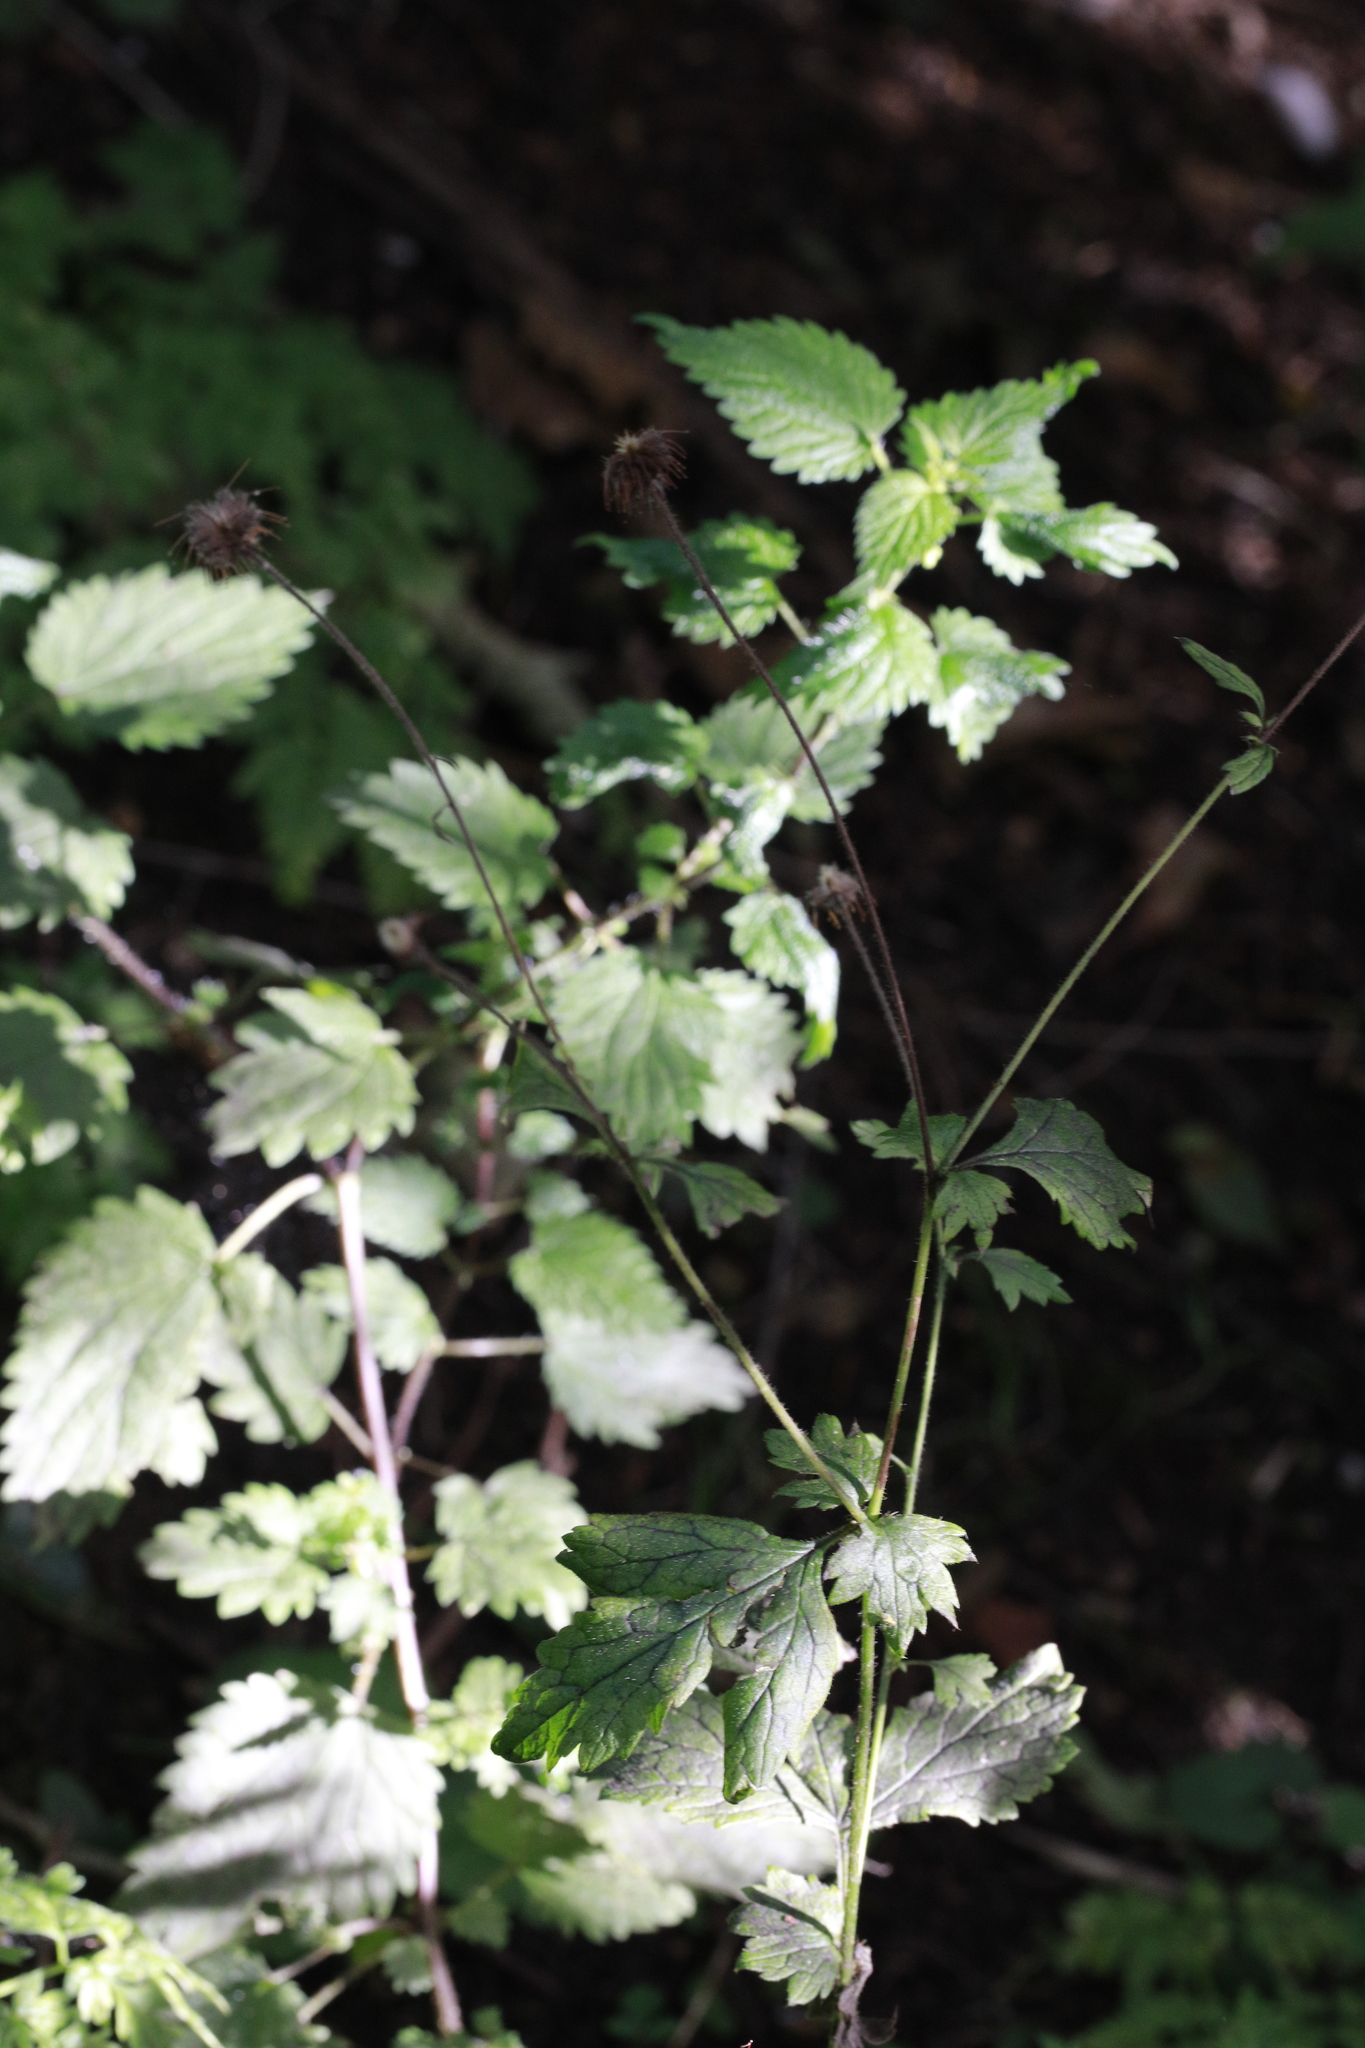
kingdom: Plantae
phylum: Tracheophyta
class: Magnoliopsida
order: Rosales
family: Urticaceae
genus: Urtica
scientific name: Urtica dioica
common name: Common nettle
